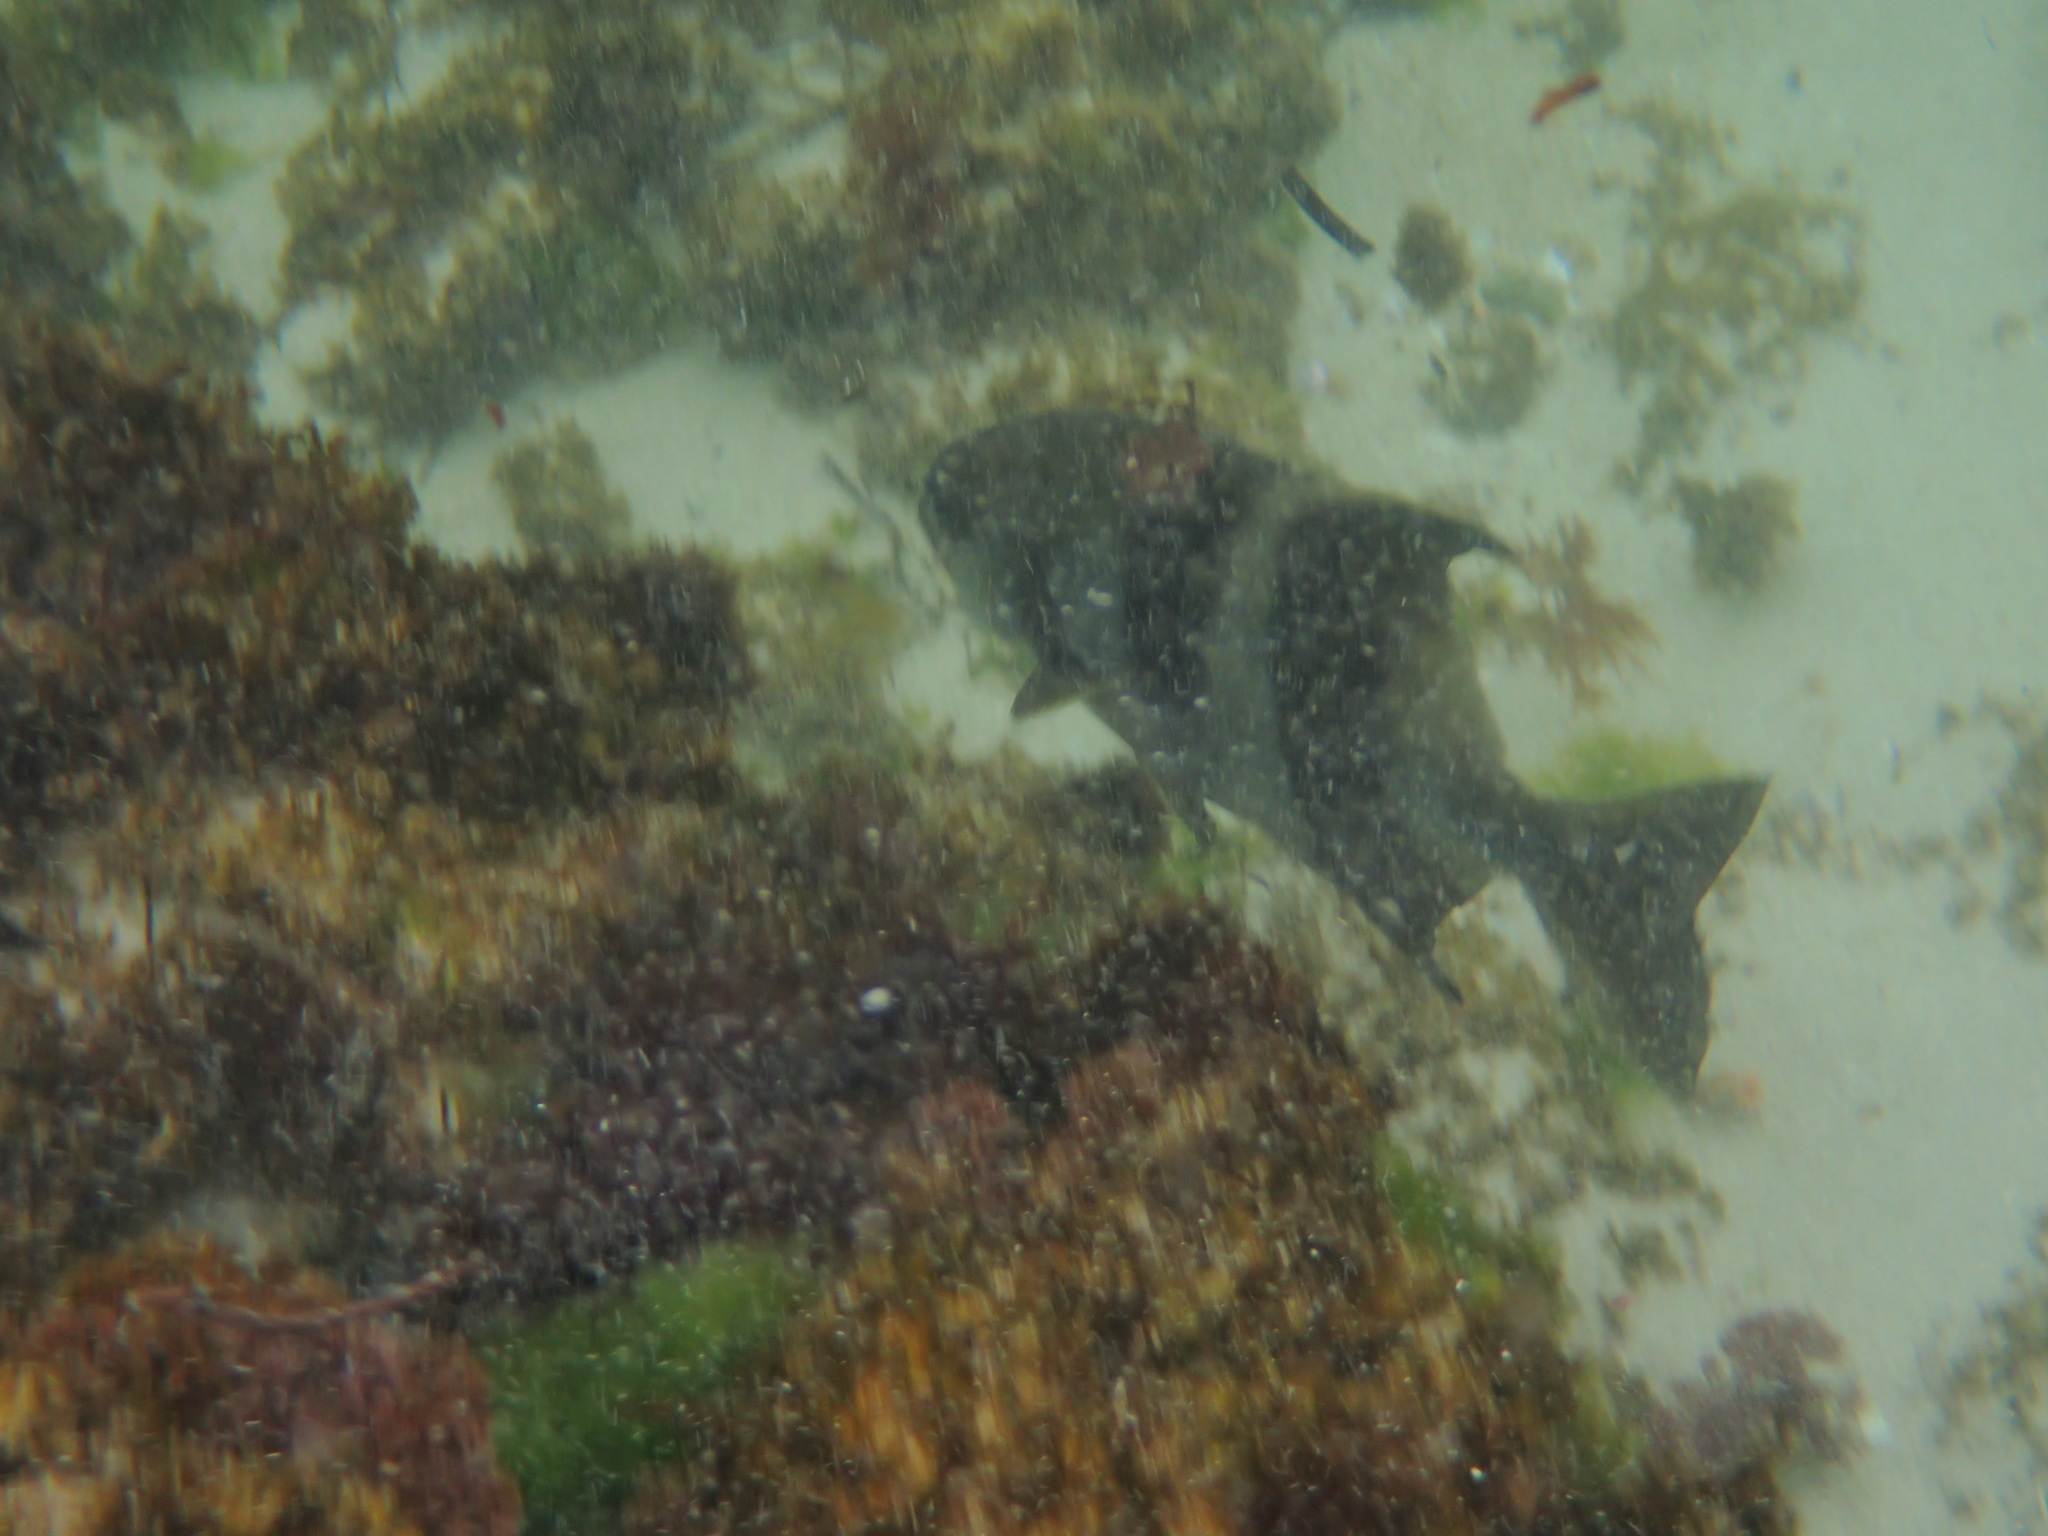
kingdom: Animalia
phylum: Chordata
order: Perciformes
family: Kyphosidae
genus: Scorpis
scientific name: Scorpis georgiana
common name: Banded sweep
